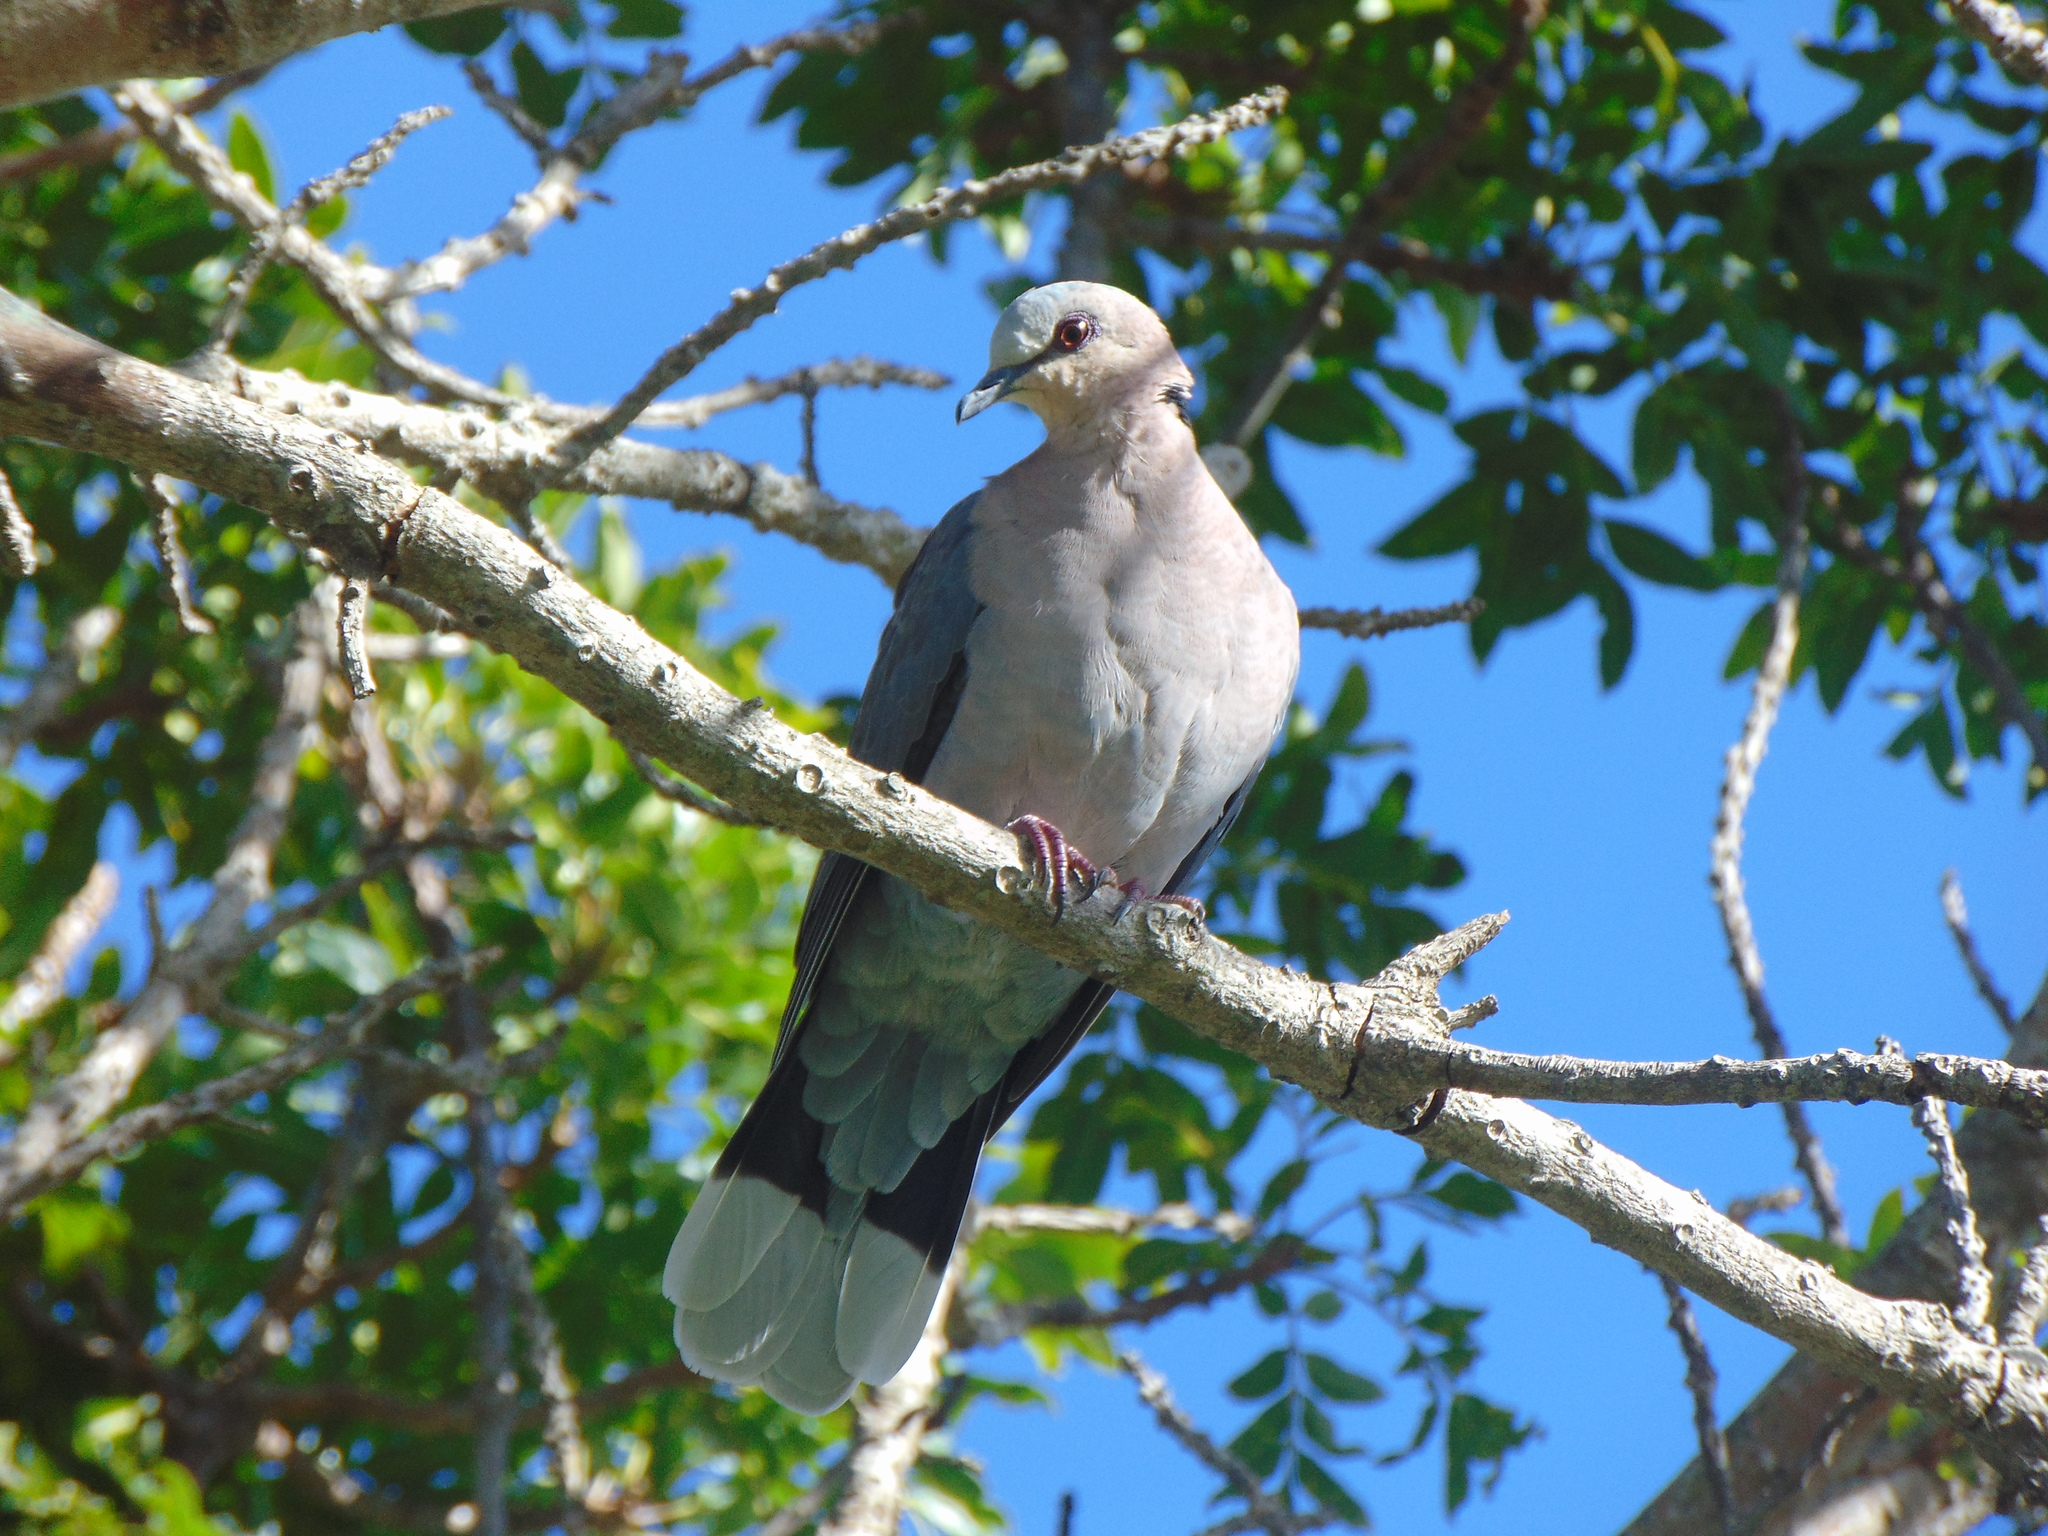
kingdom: Animalia
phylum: Chordata
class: Aves
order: Columbiformes
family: Columbidae
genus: Streptopelia
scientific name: Streptopelia semitorquata
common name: Red-eyed dove
